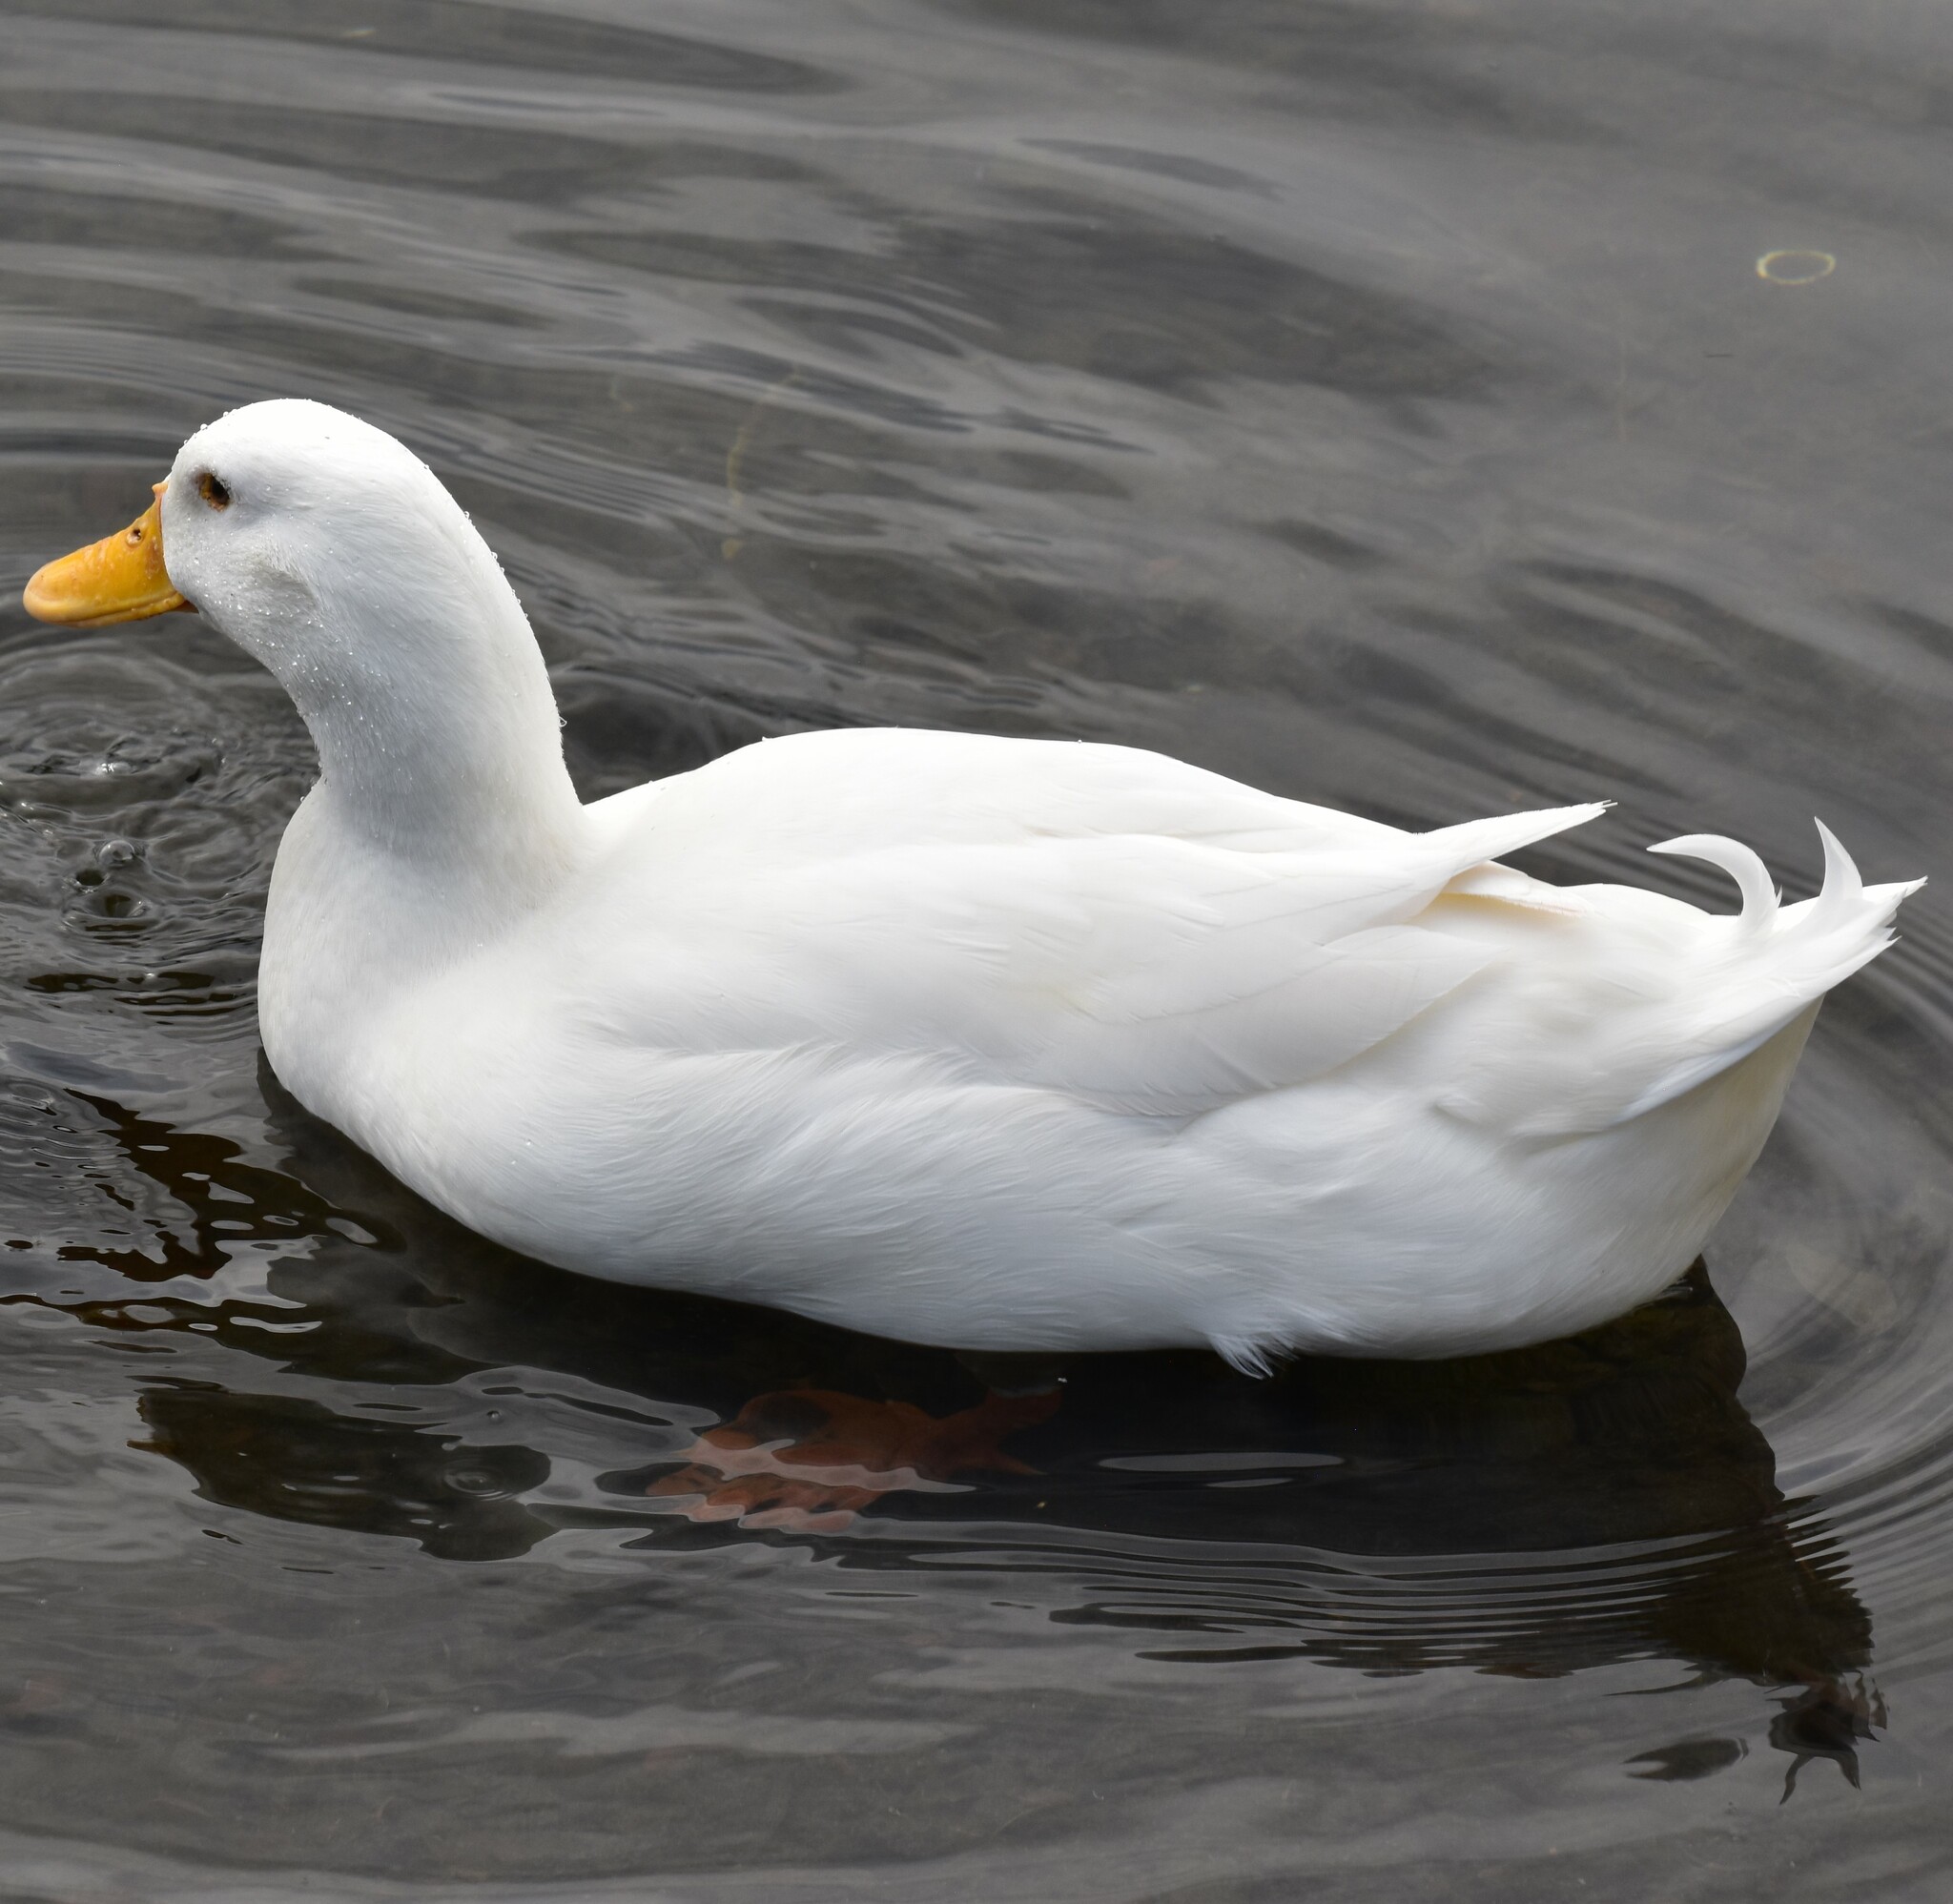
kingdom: Animalia
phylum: Chordata
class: Aves
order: Anseriformes
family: Anatidae
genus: Anas
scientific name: Anas platyrhynchos
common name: Mallard
